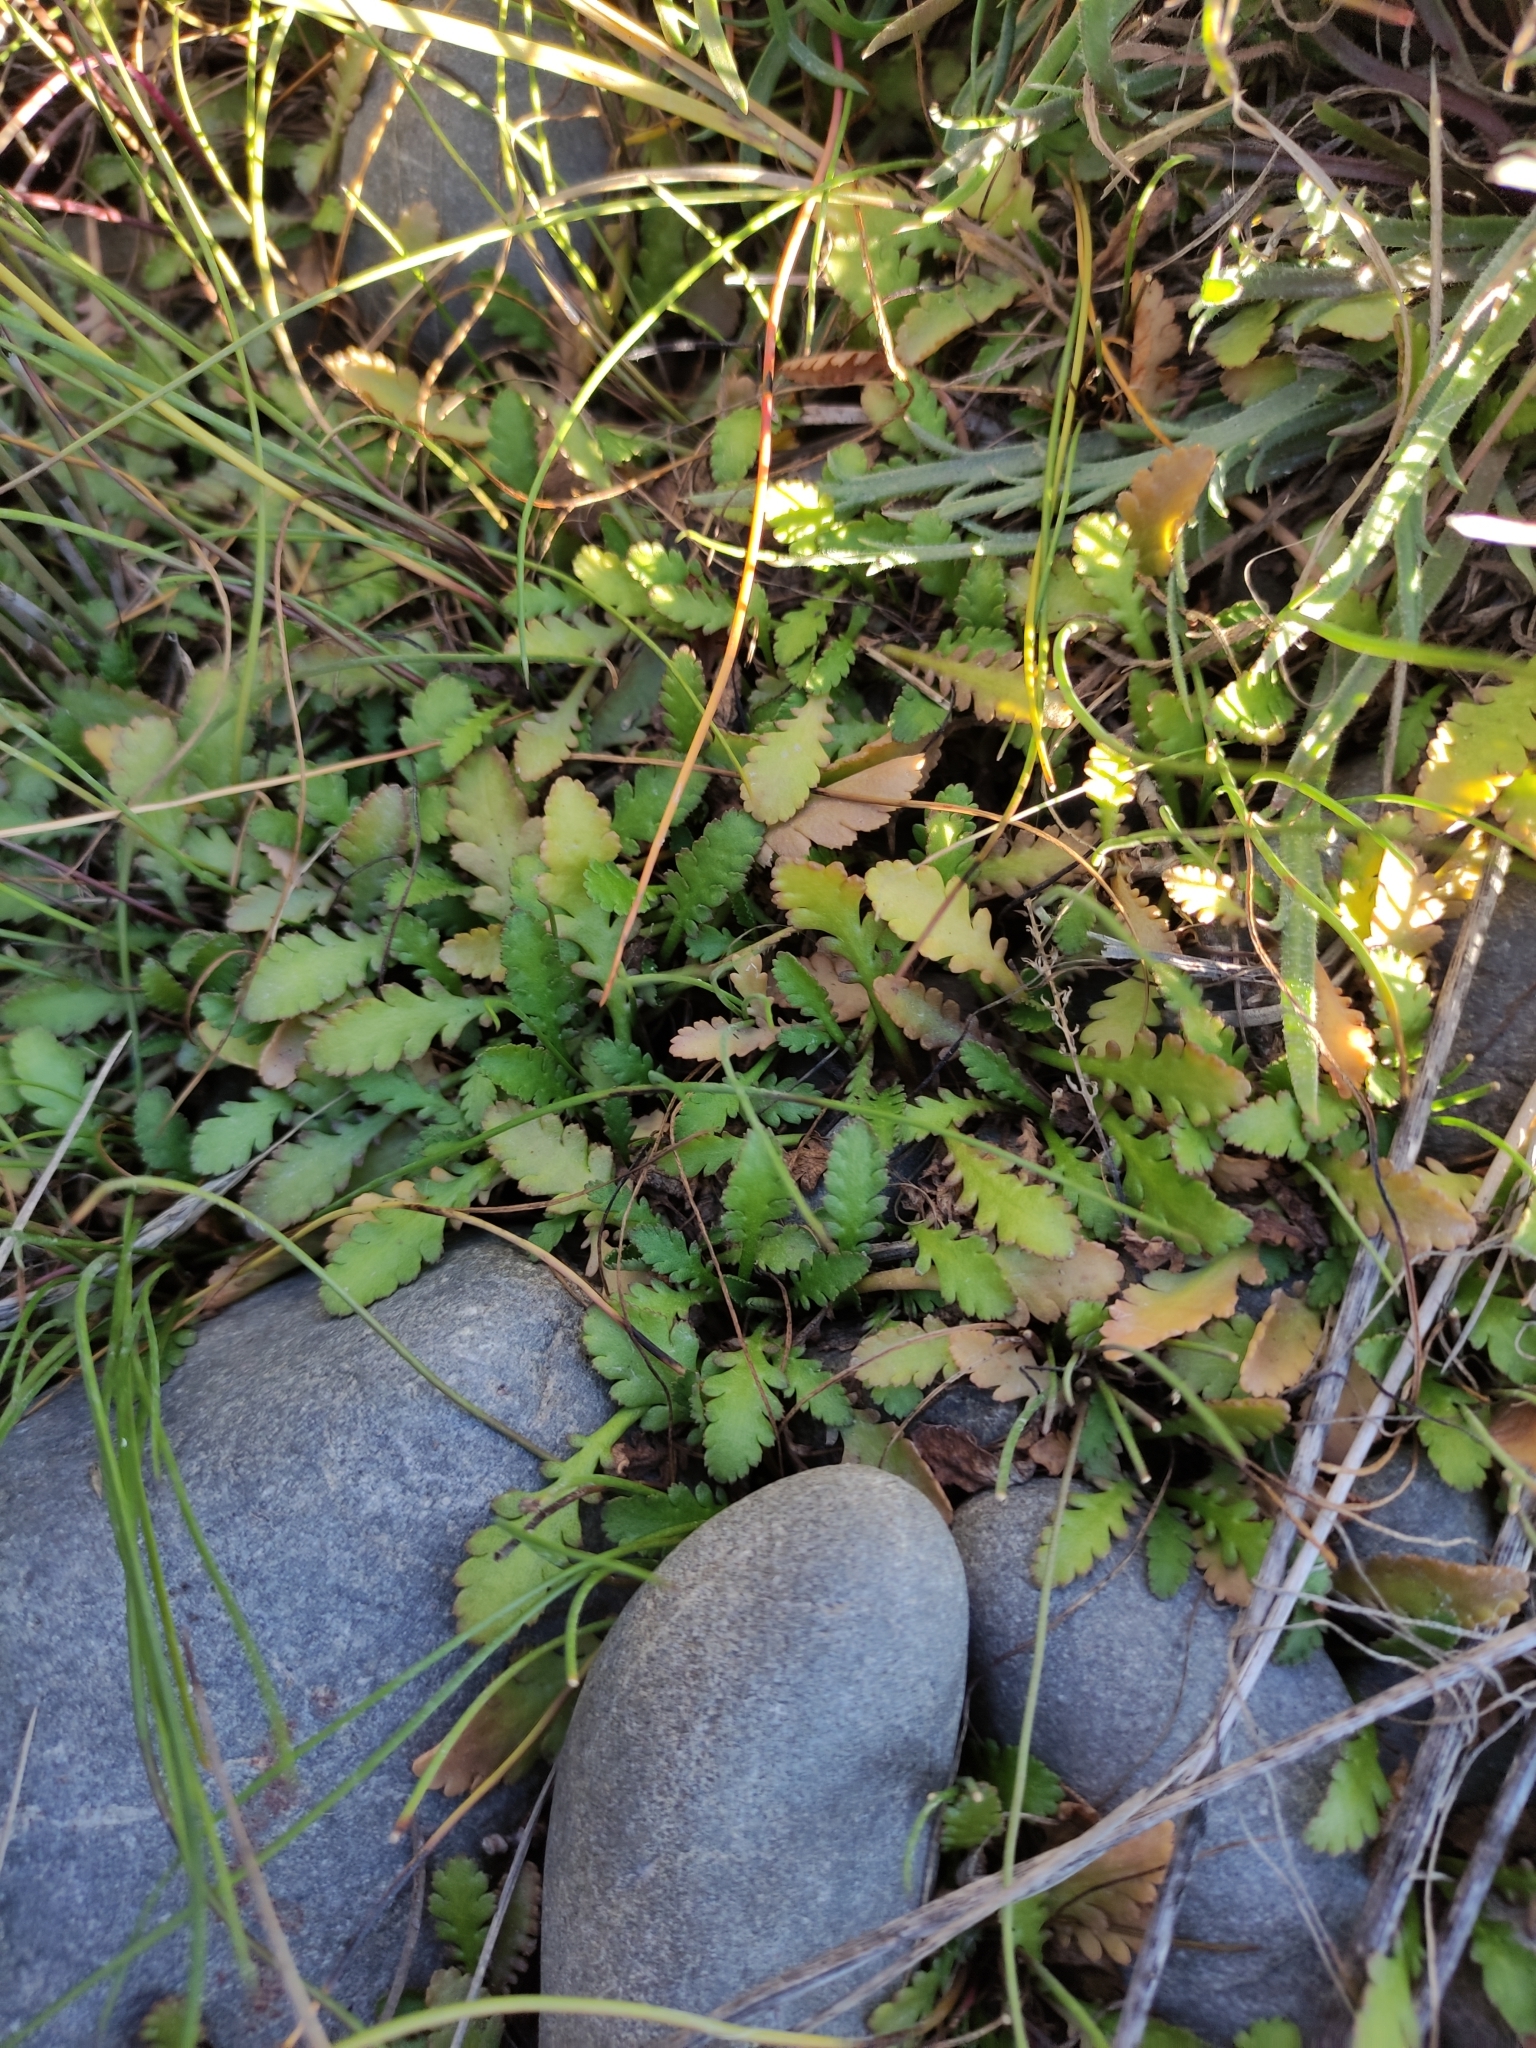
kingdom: Plantae
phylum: Tracheophyta
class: Magnoliopsida
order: Asterales
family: Asteraceae
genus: Leptinella
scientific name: Leptinella dioica
